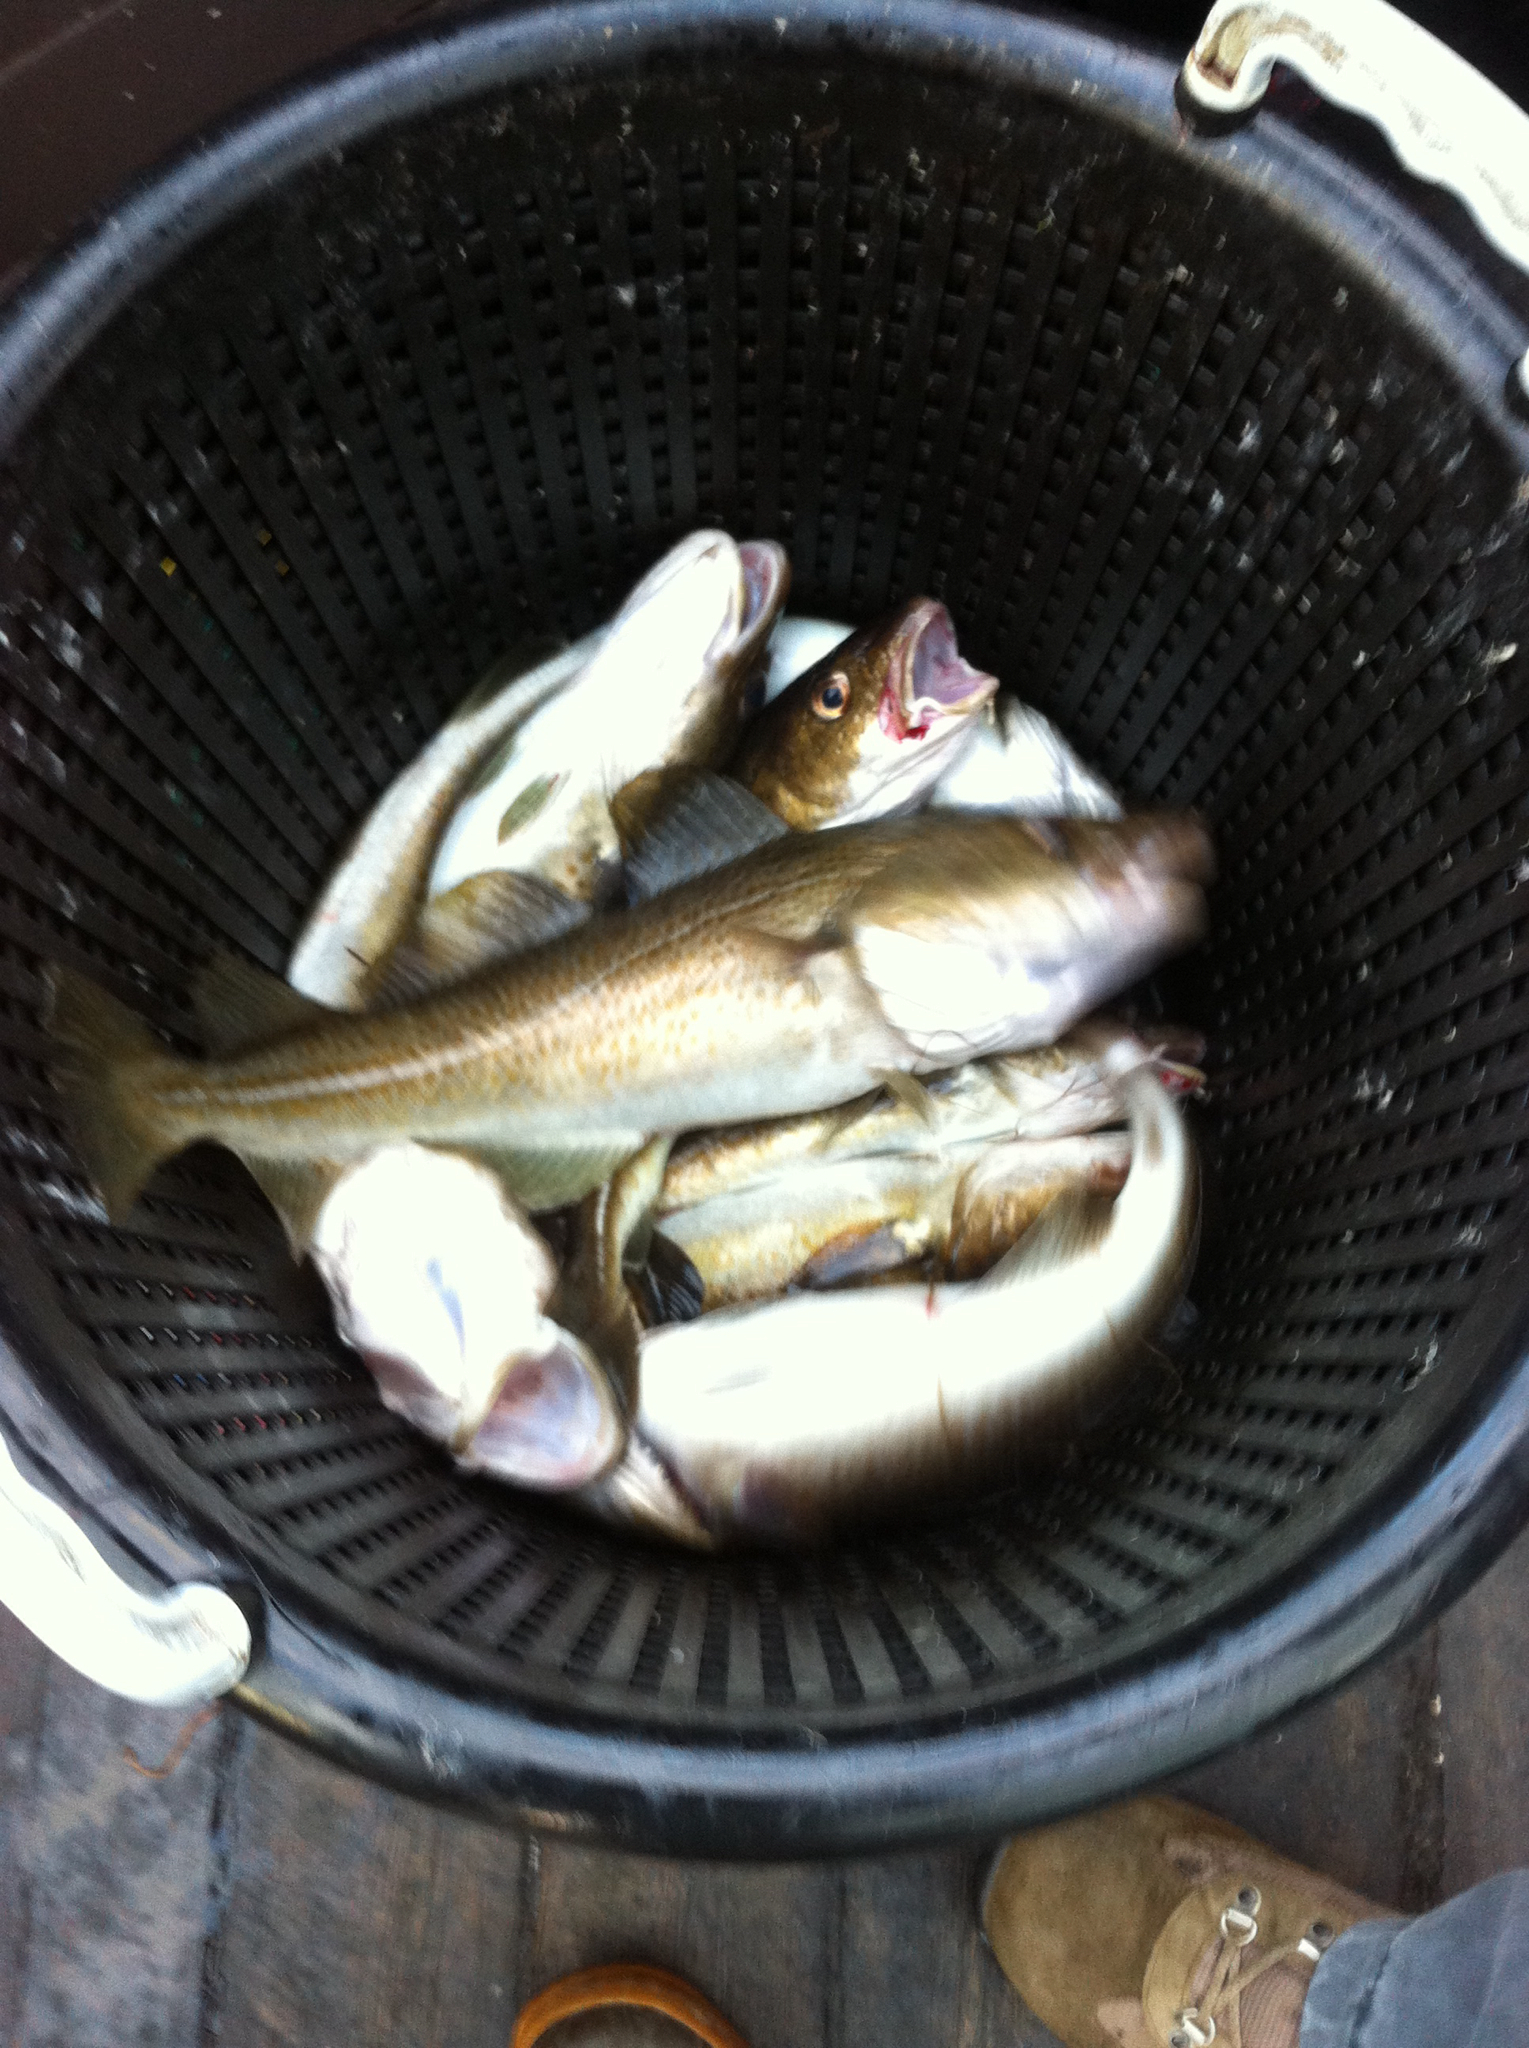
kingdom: Animalia
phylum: Chordata
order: Gadiformes
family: Gadidae
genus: Gadus
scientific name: Gadus morhua
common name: Atlantic cod
